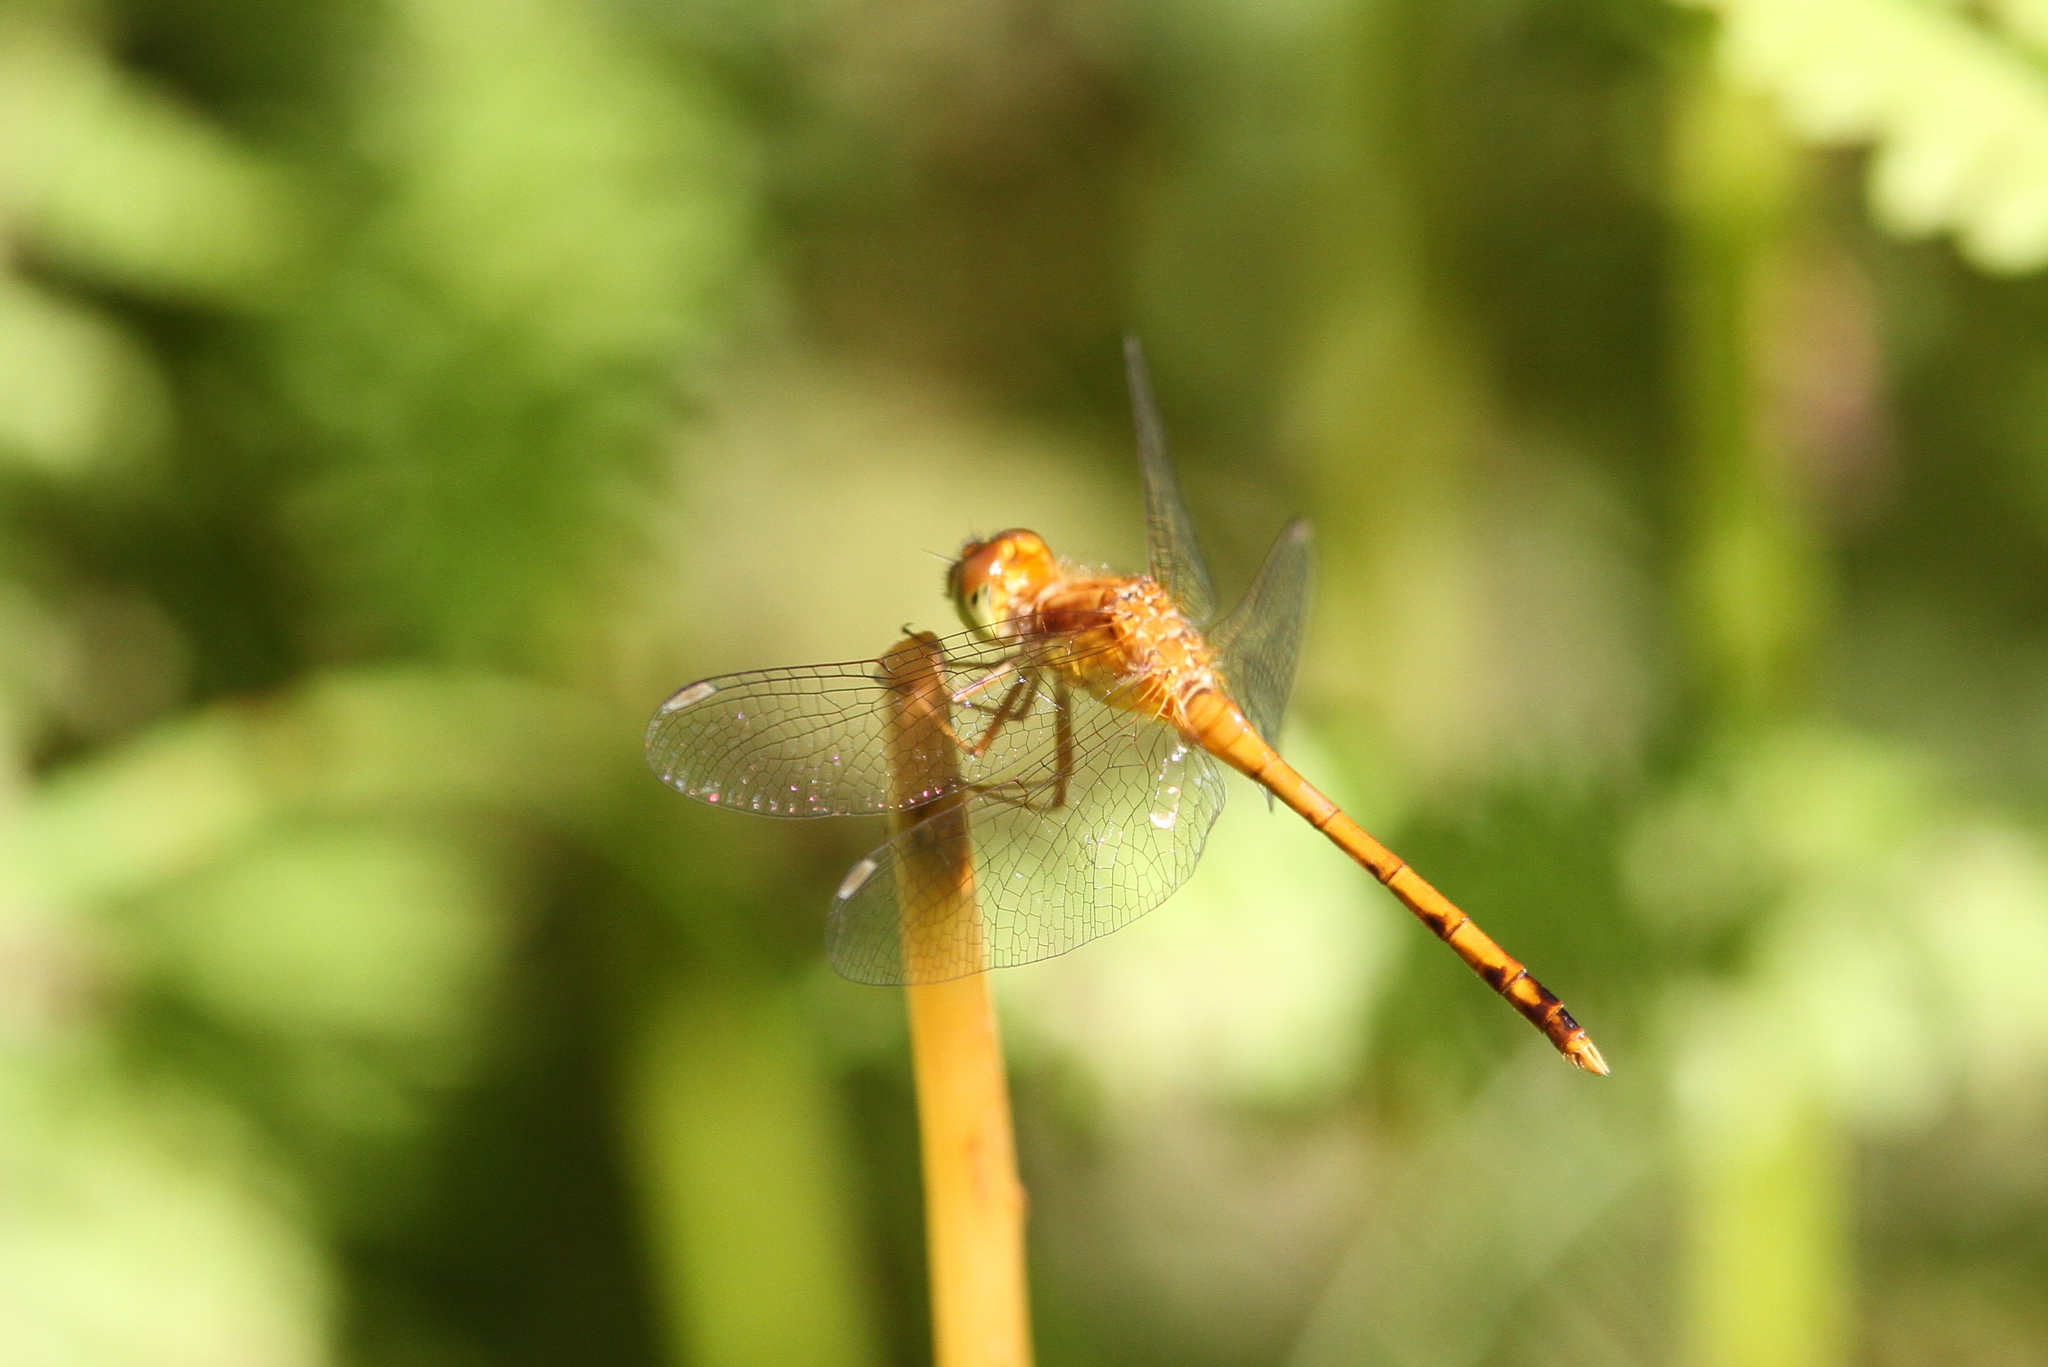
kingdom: Animalia
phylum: Arthropoda
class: Insecta
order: Odonata
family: Libellulidae
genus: Sympetrum
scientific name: Sympetrum vicinum
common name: Autumn meadowhawk
